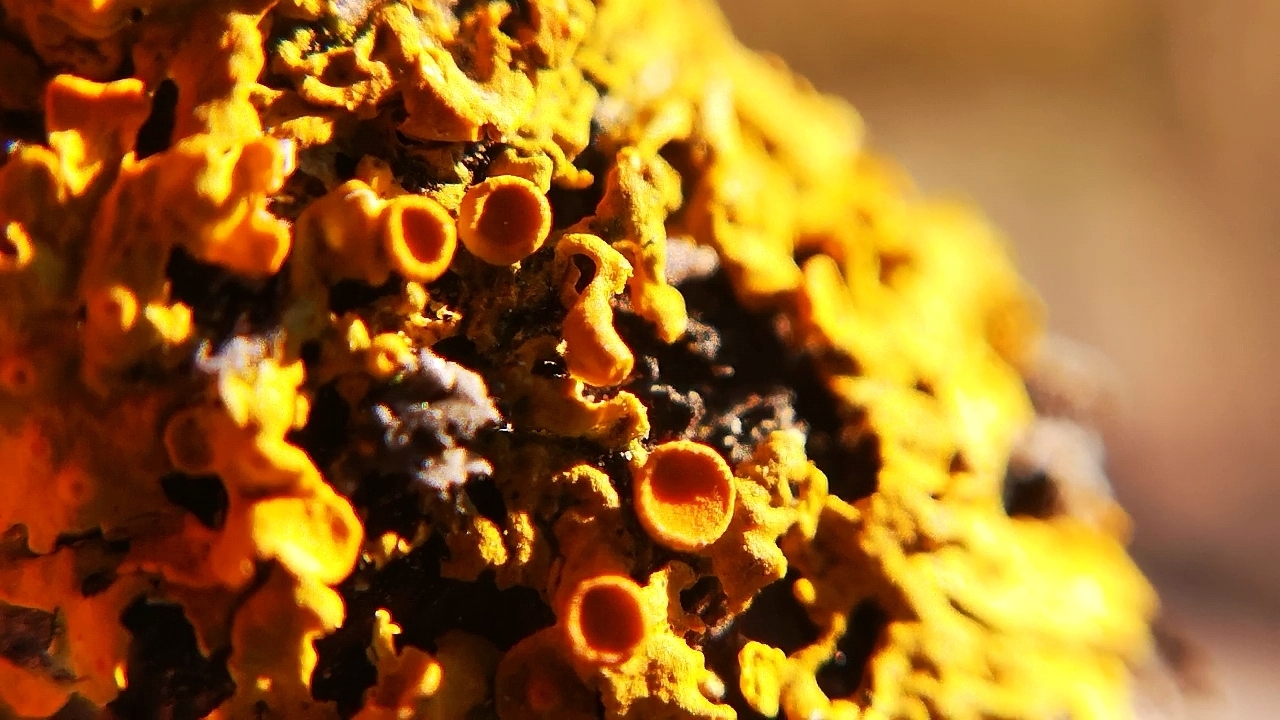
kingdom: Fungi
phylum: Ascomycota
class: Lecanoromycetes
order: Teloschistales
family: Teloschistaceae
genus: Xanthoria
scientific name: Xanthoria parietina
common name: Common orange lichen
